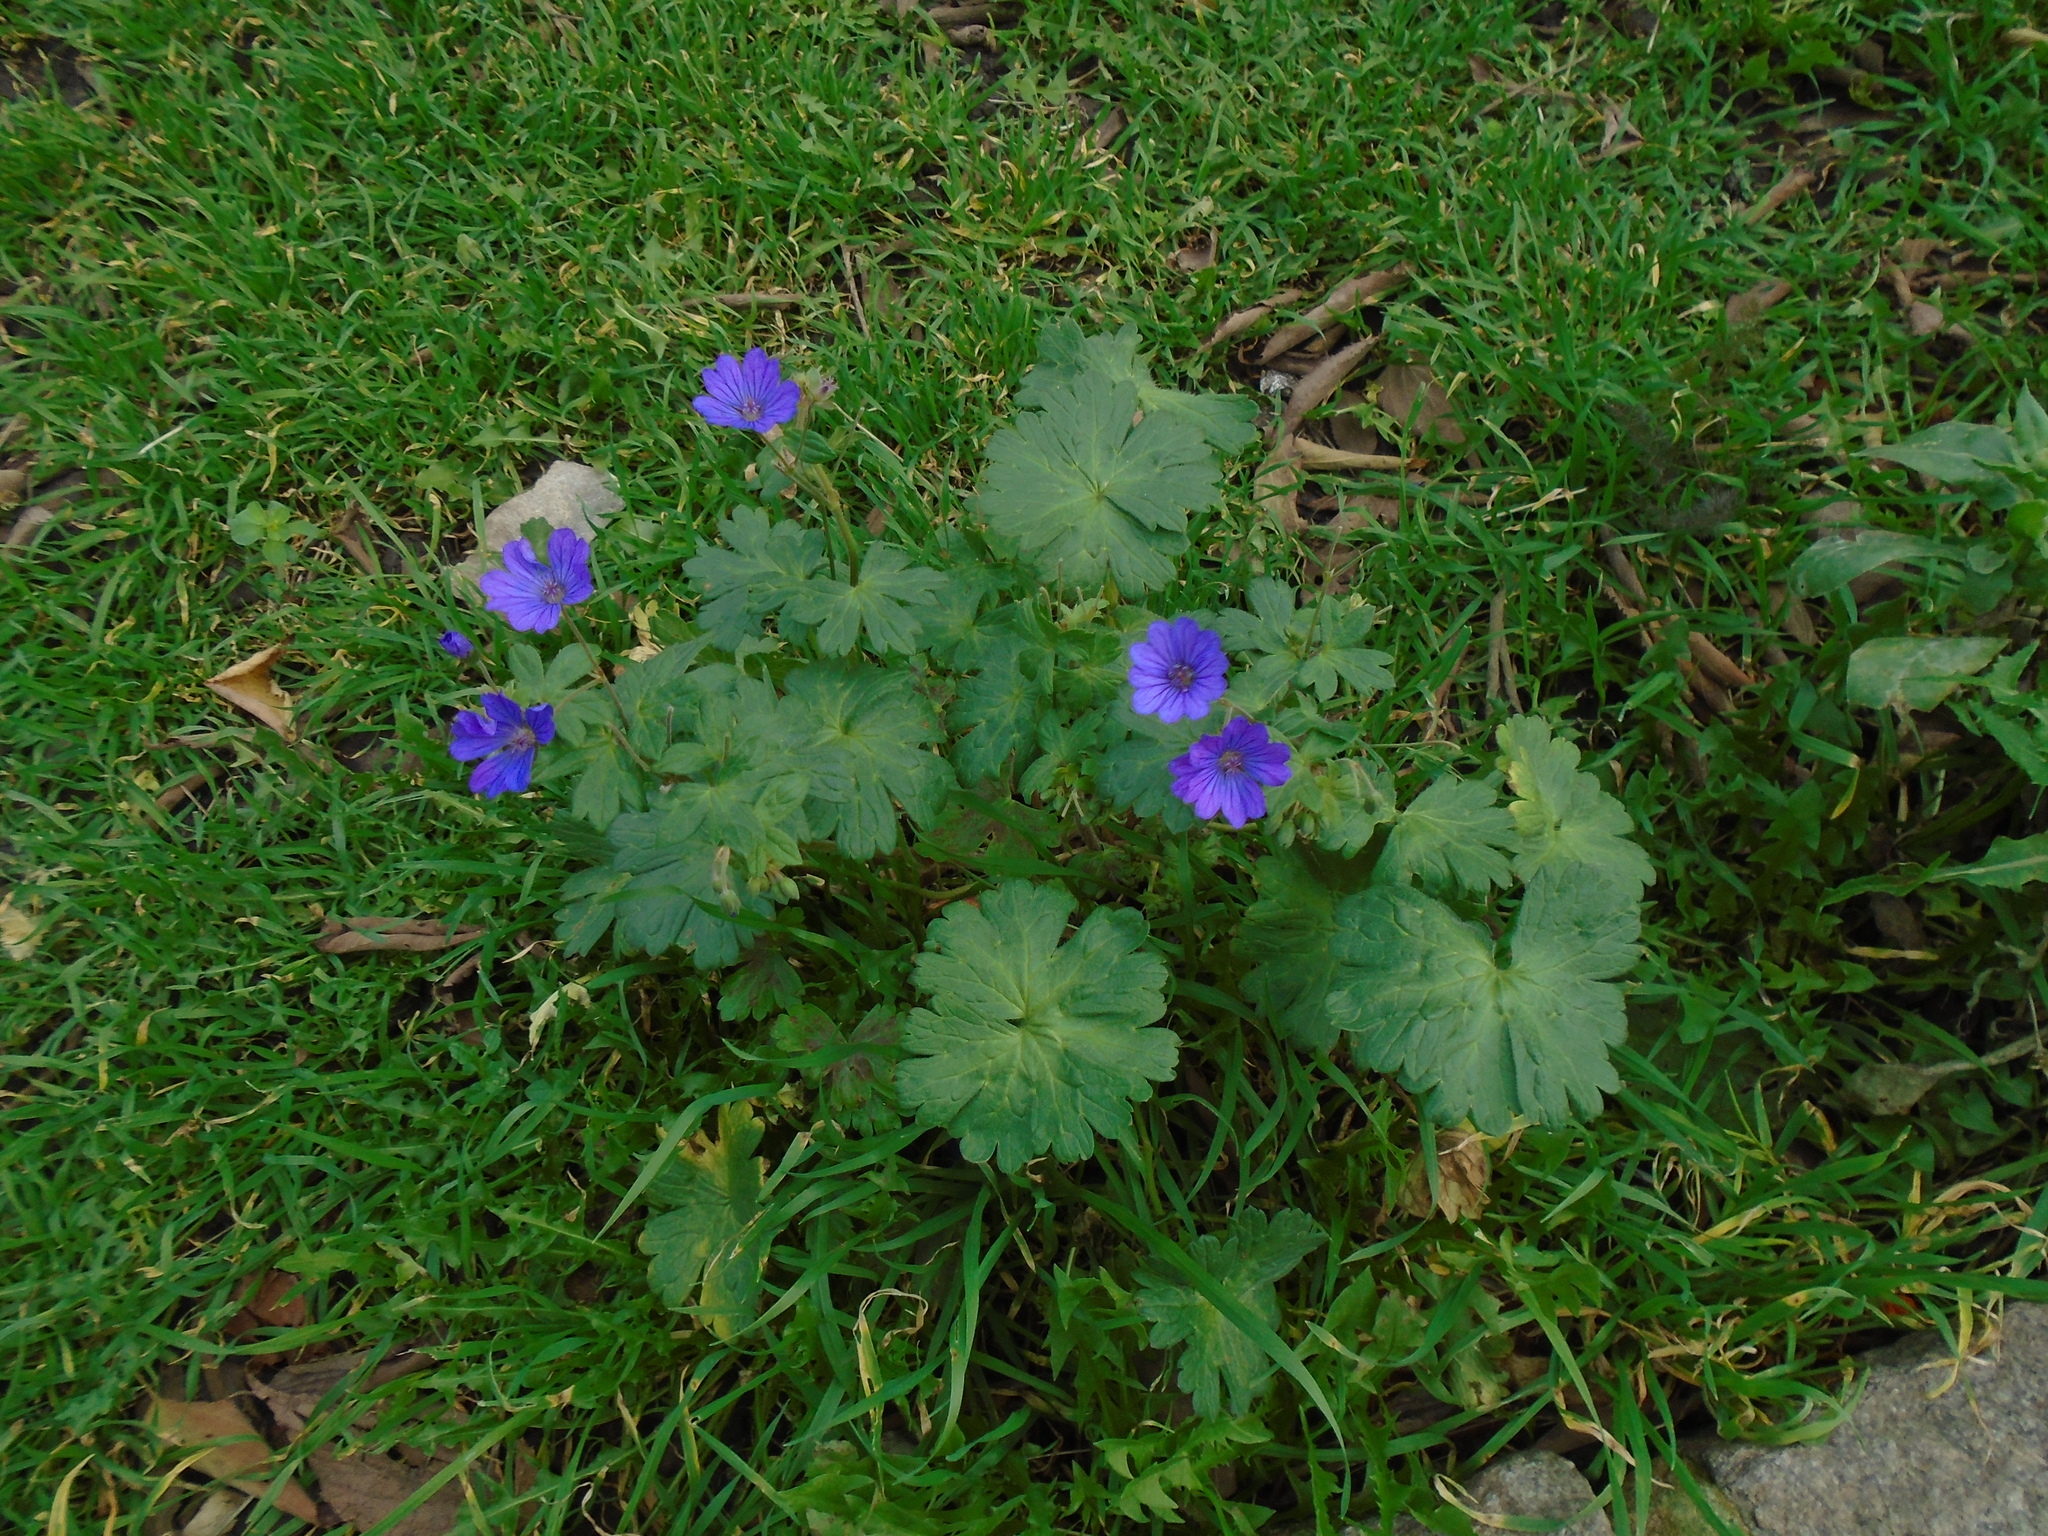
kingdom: Plantae
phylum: Tracheophyta
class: Magnoliopsida
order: Geraniales
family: Geraniaceae
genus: Geranium
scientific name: Geranium pyrenaicum
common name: Hedgerow crane's-bill
